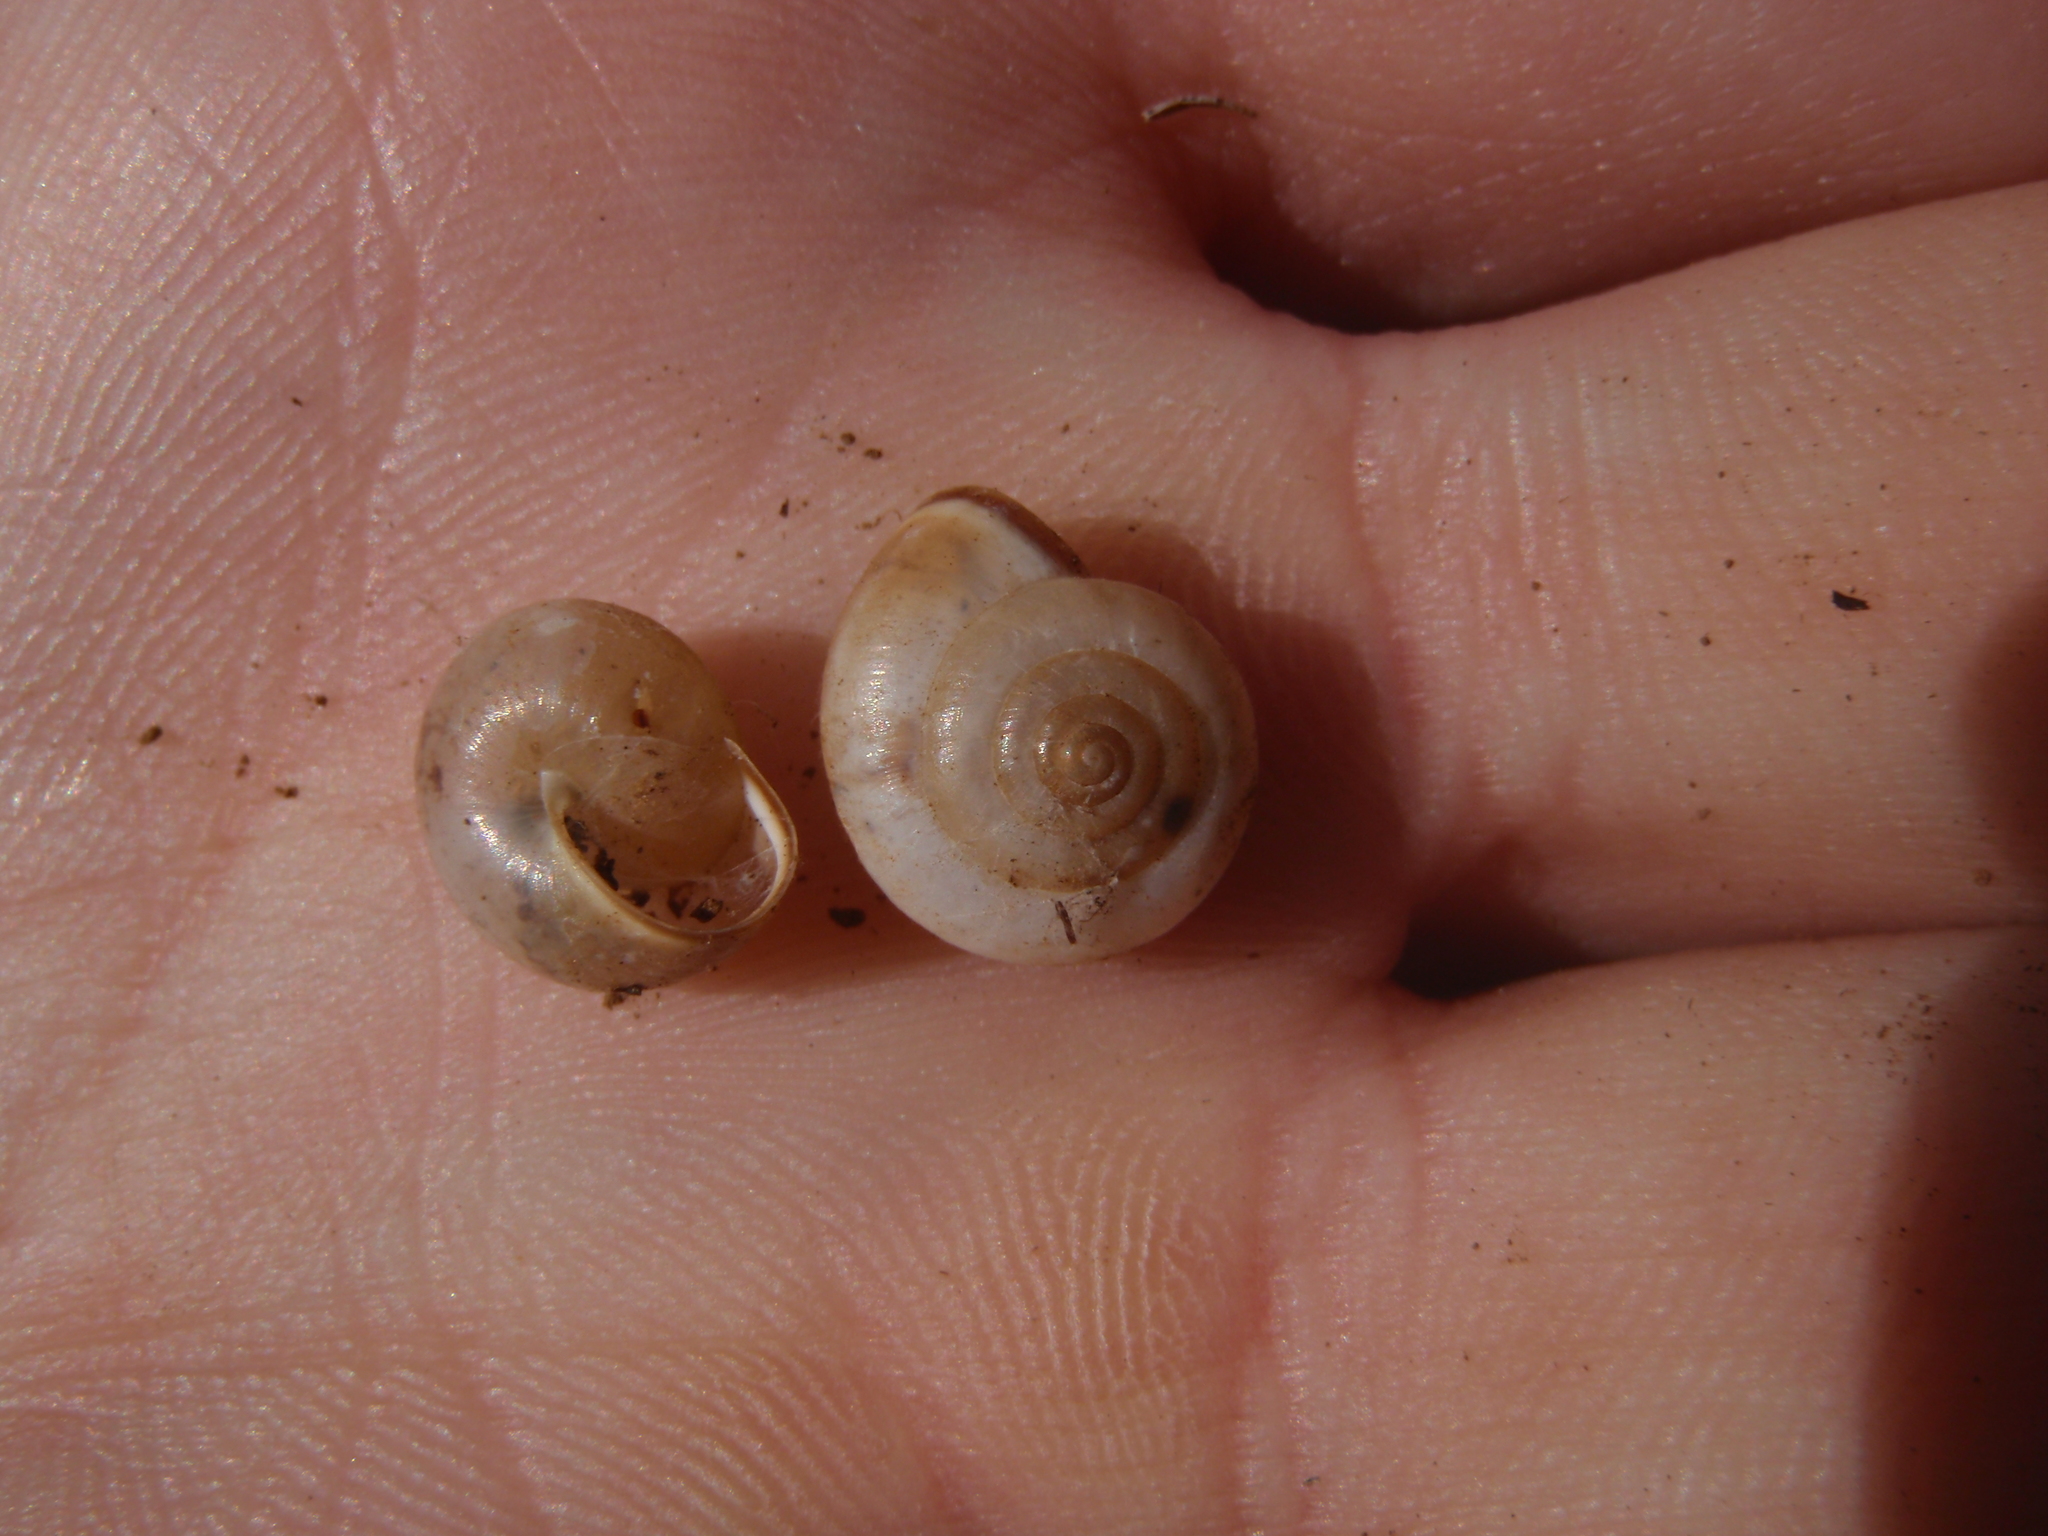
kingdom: Animalia
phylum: Mollusca
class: Gastropoda
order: Stylommatophora
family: Hygromiidae
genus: Monacha
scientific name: Monacha cartusiana
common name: Carthusian snail
